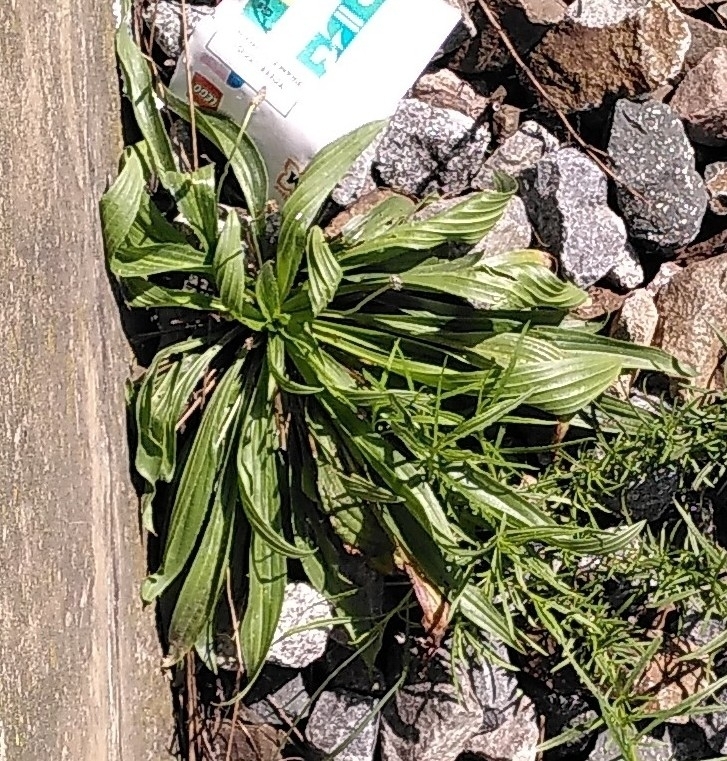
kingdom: Plantae
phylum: Tracheophyta
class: Magnoliopsida
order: Lamiales
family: Plantaginaceae
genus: Plantago
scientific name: Plantago lanceolata
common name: Ribwort plantain
